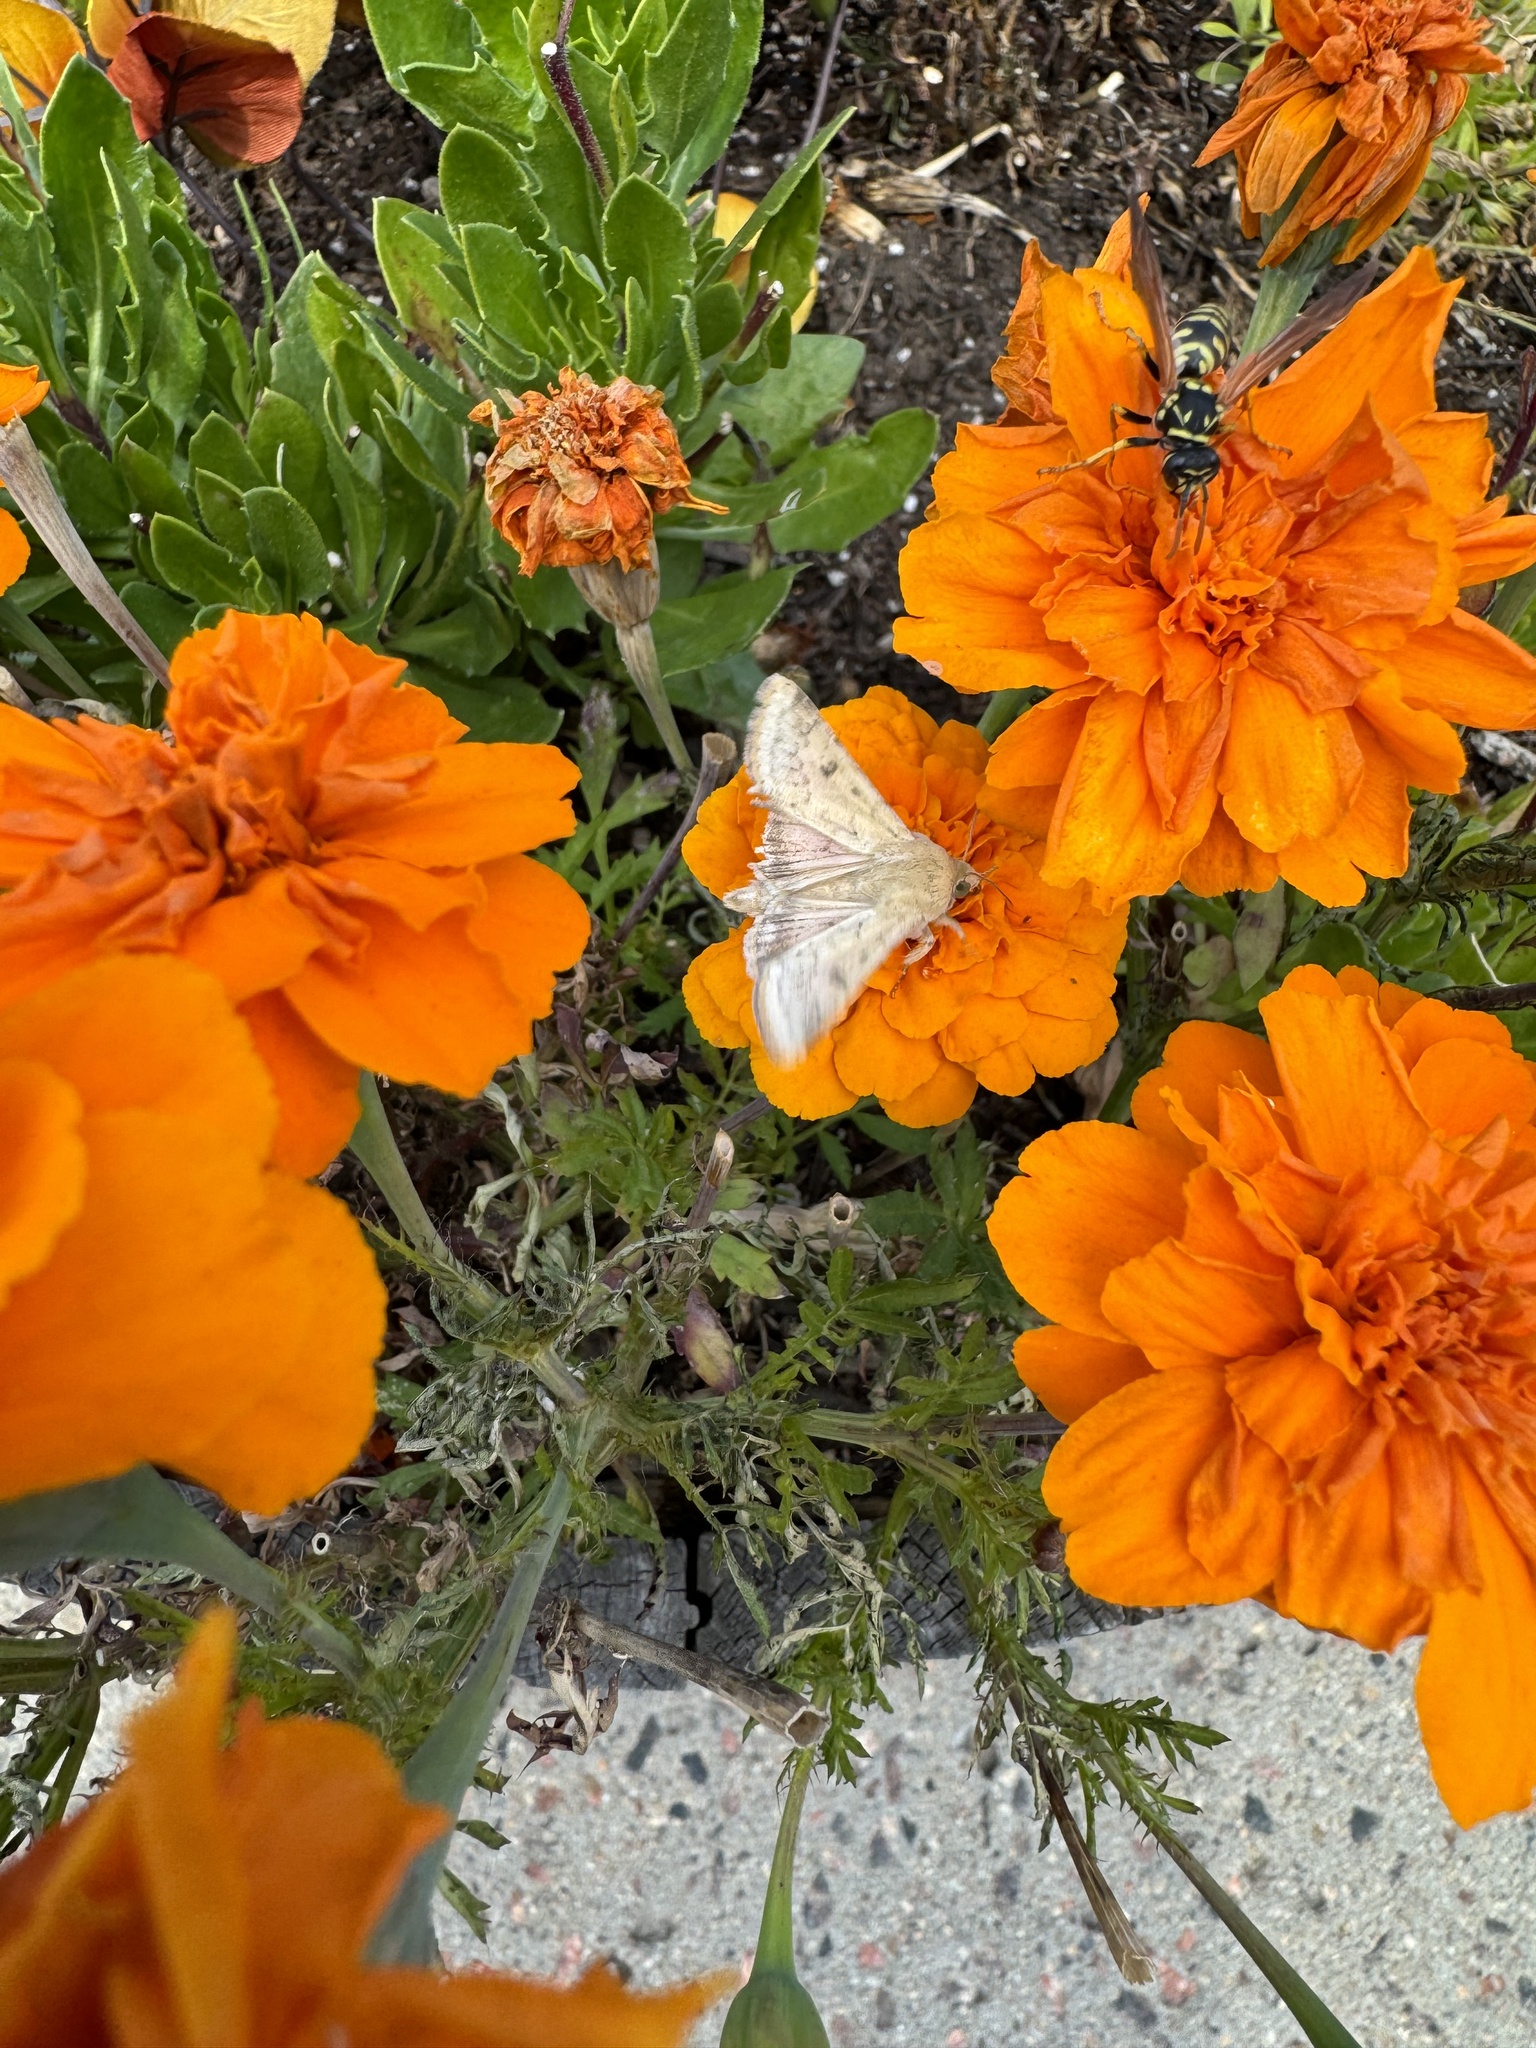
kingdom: Animalia
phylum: Arthropoda
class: Insecta
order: Lepidoptera
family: Noctuidae
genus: Helicoverpa
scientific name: Helicoverpa zea
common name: Bollworm
